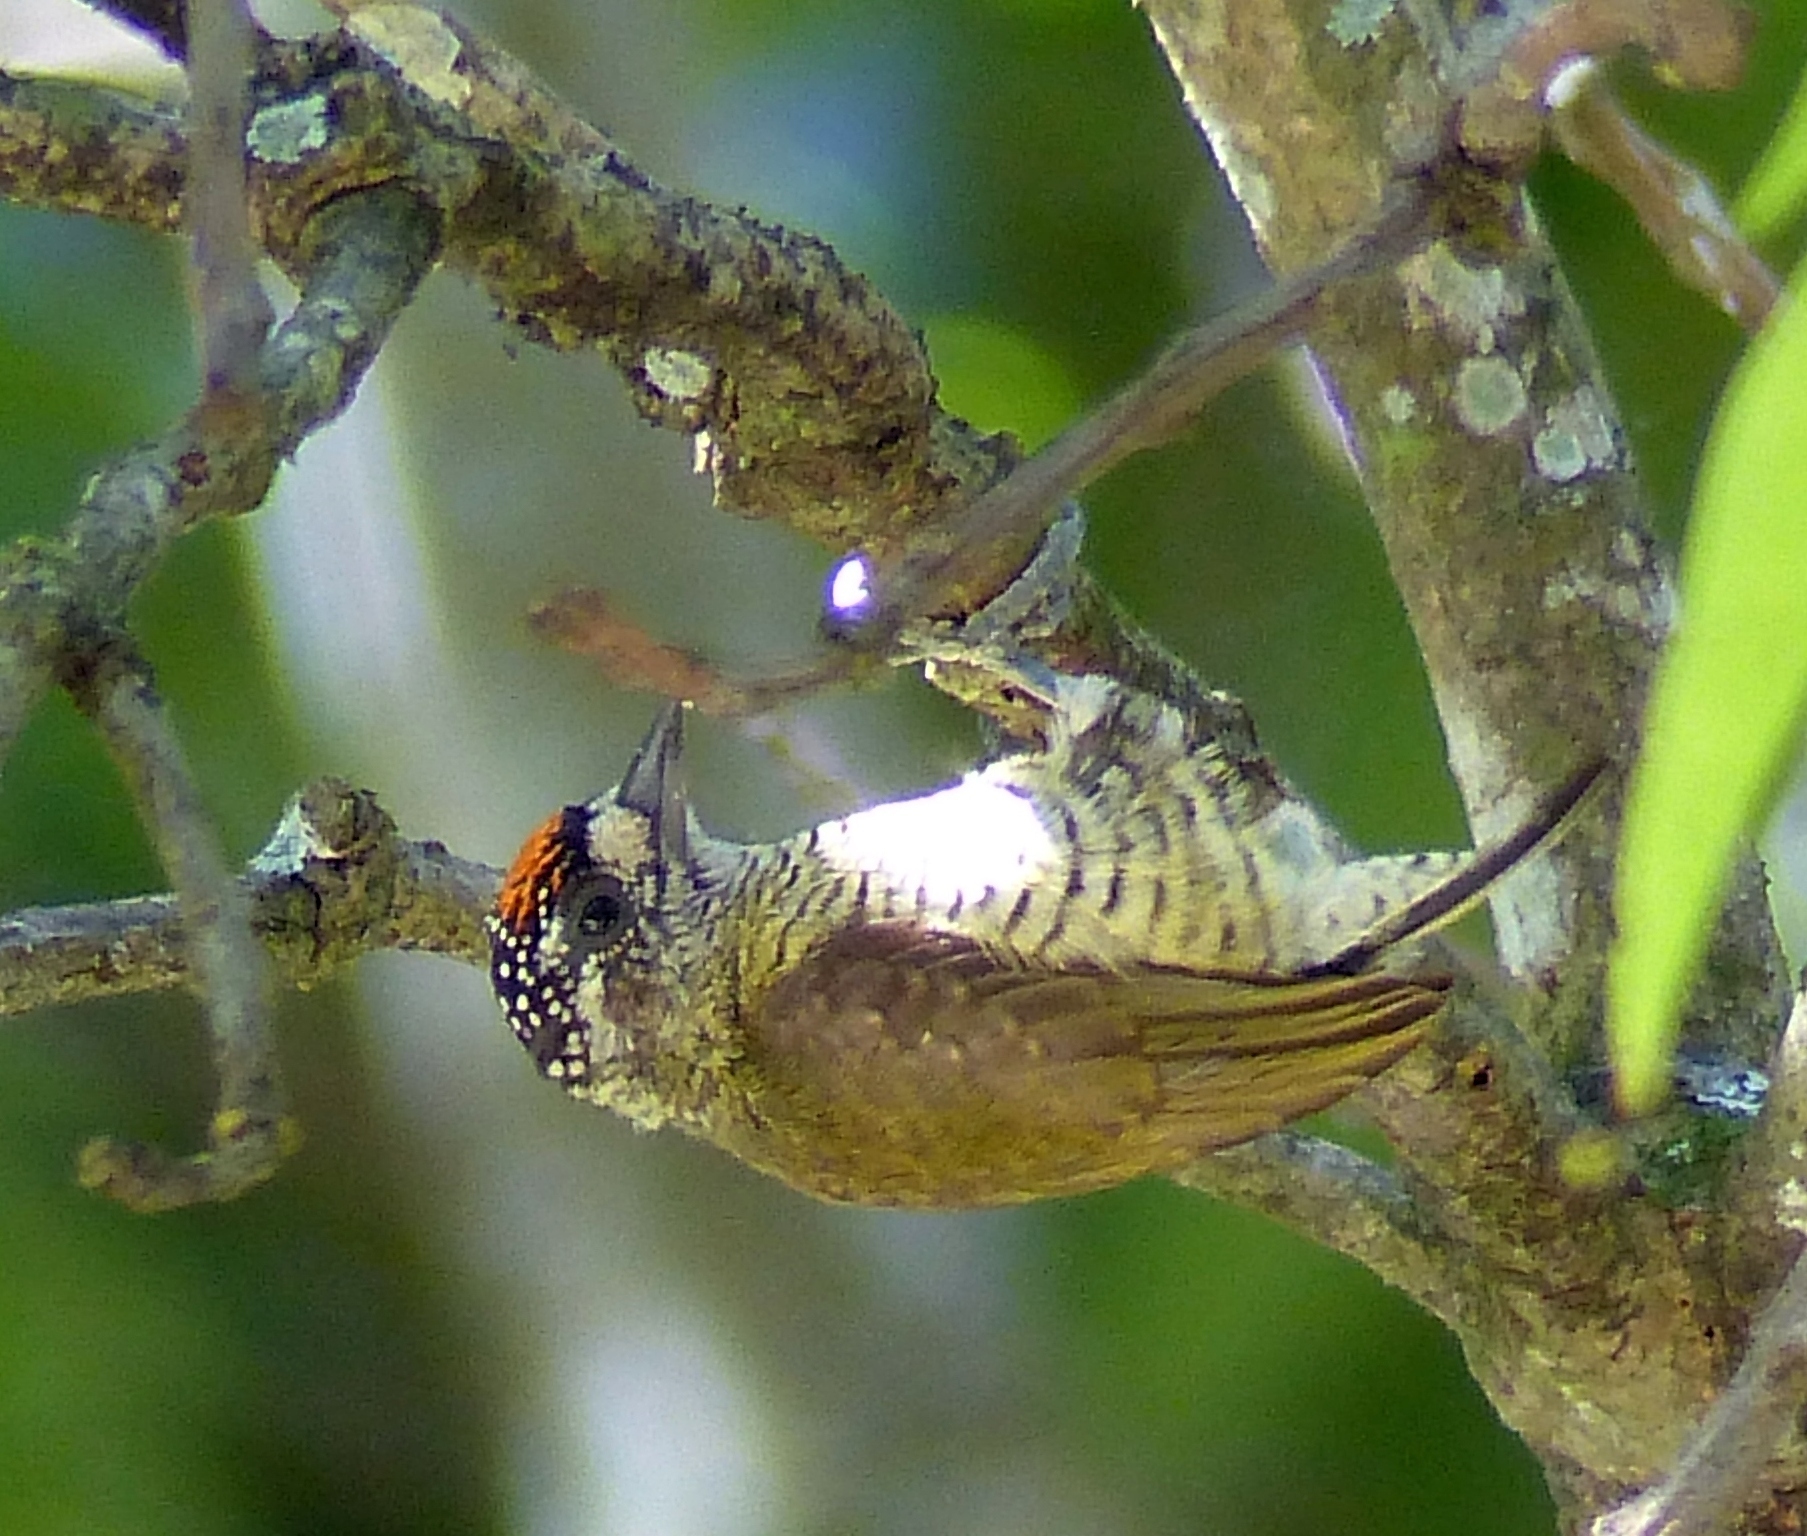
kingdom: Animalia
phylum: Chordata
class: Aves
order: Piciformes
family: Picidae
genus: Picumnus
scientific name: Picumnus exilis
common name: Golden-spangled piculet
